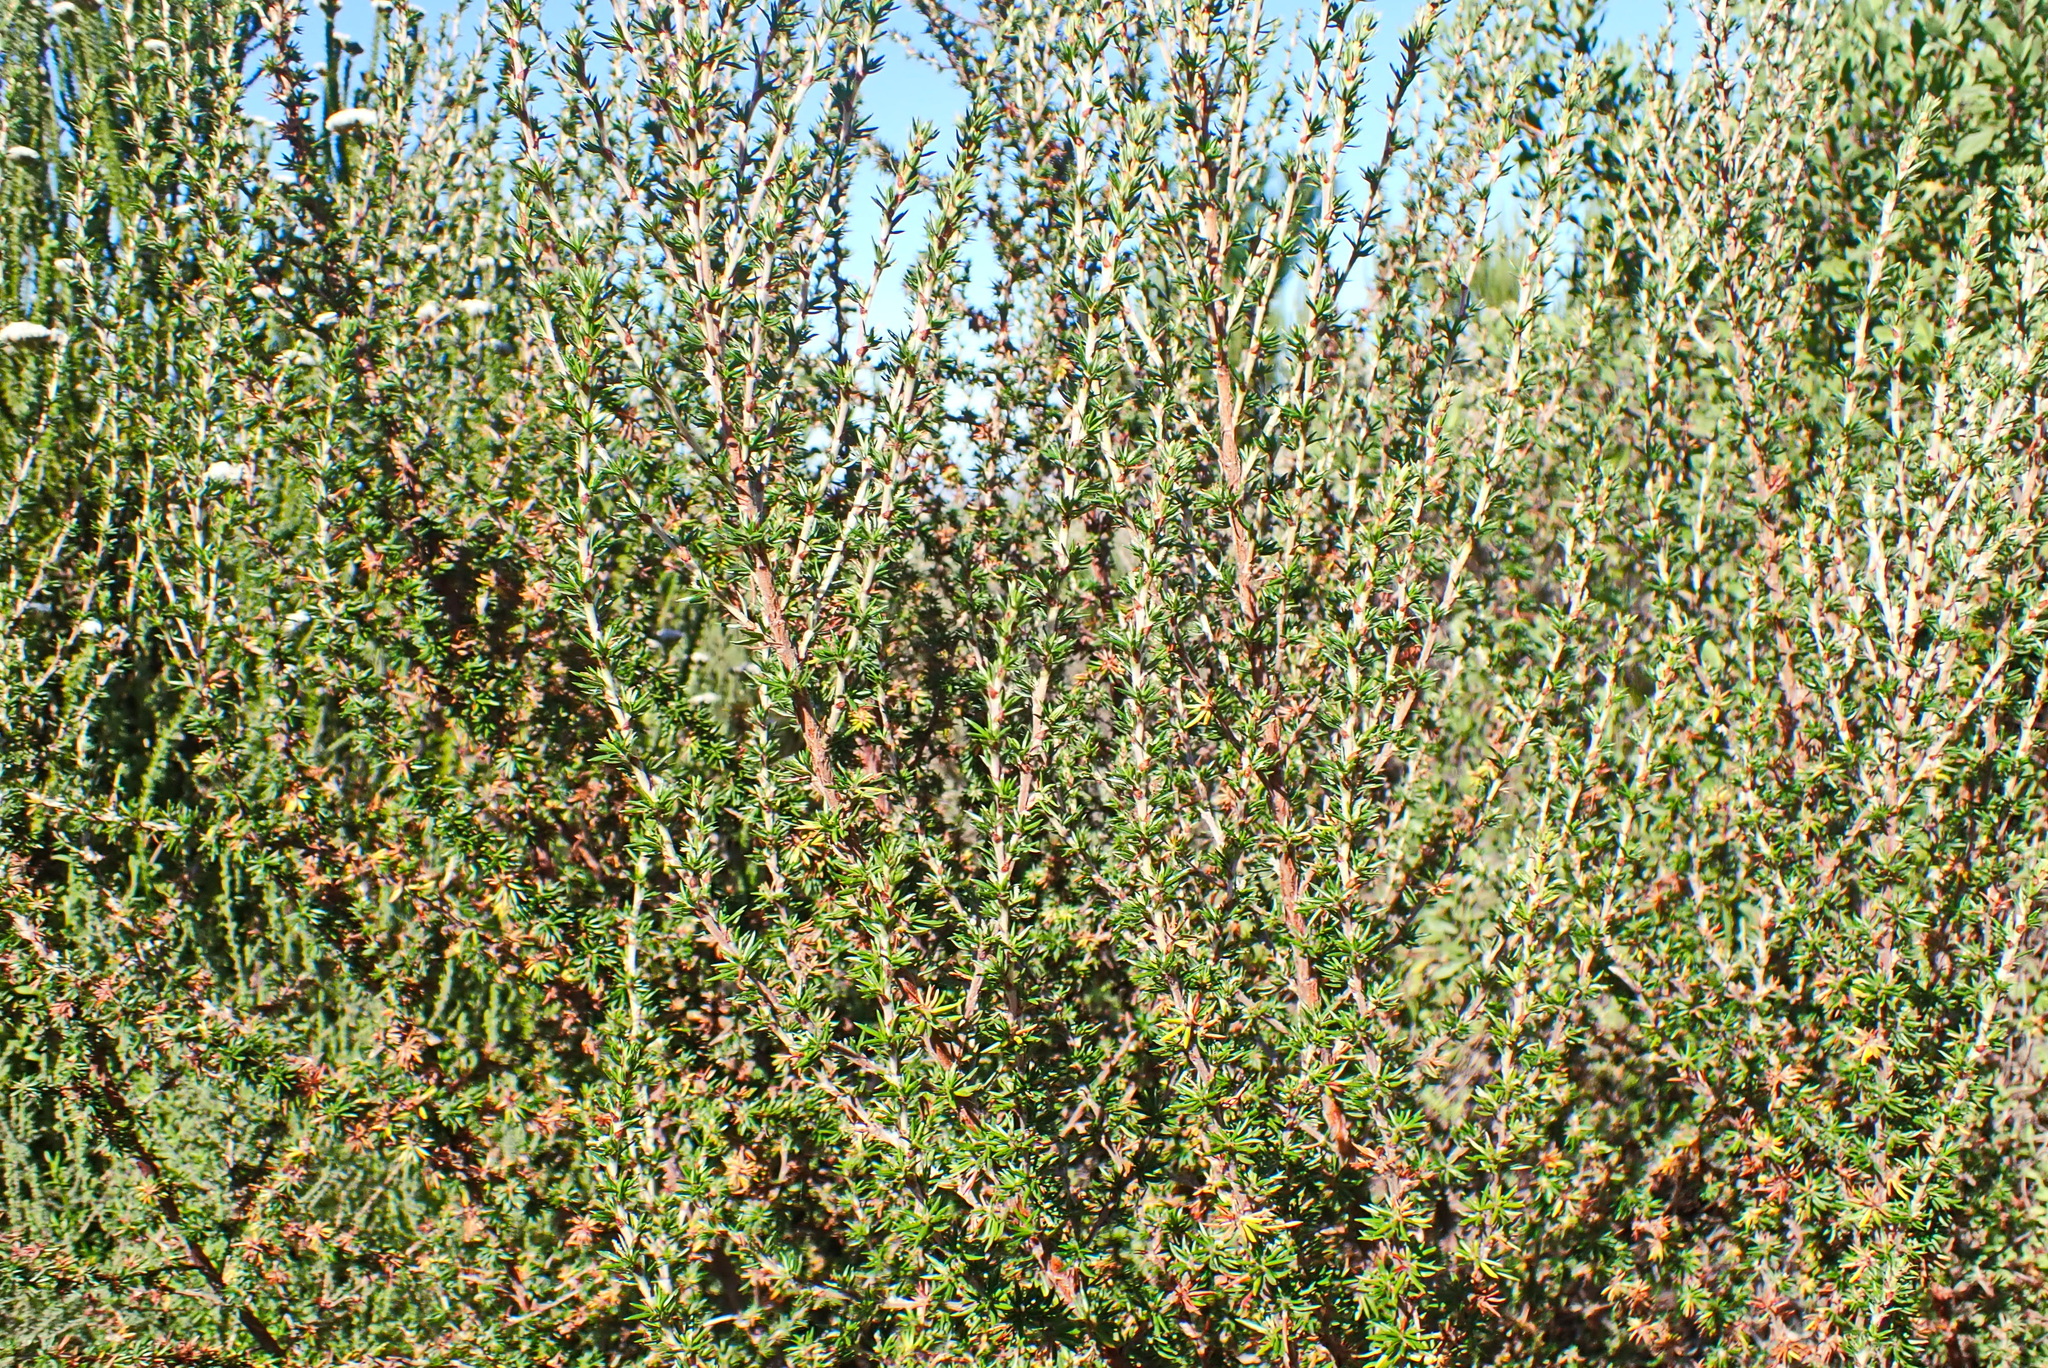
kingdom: Plantae
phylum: Tracheophyta
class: Magnoliopsida
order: Rosales
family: Rosaceae
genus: Cliffortia
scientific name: Cliffortia stricta
